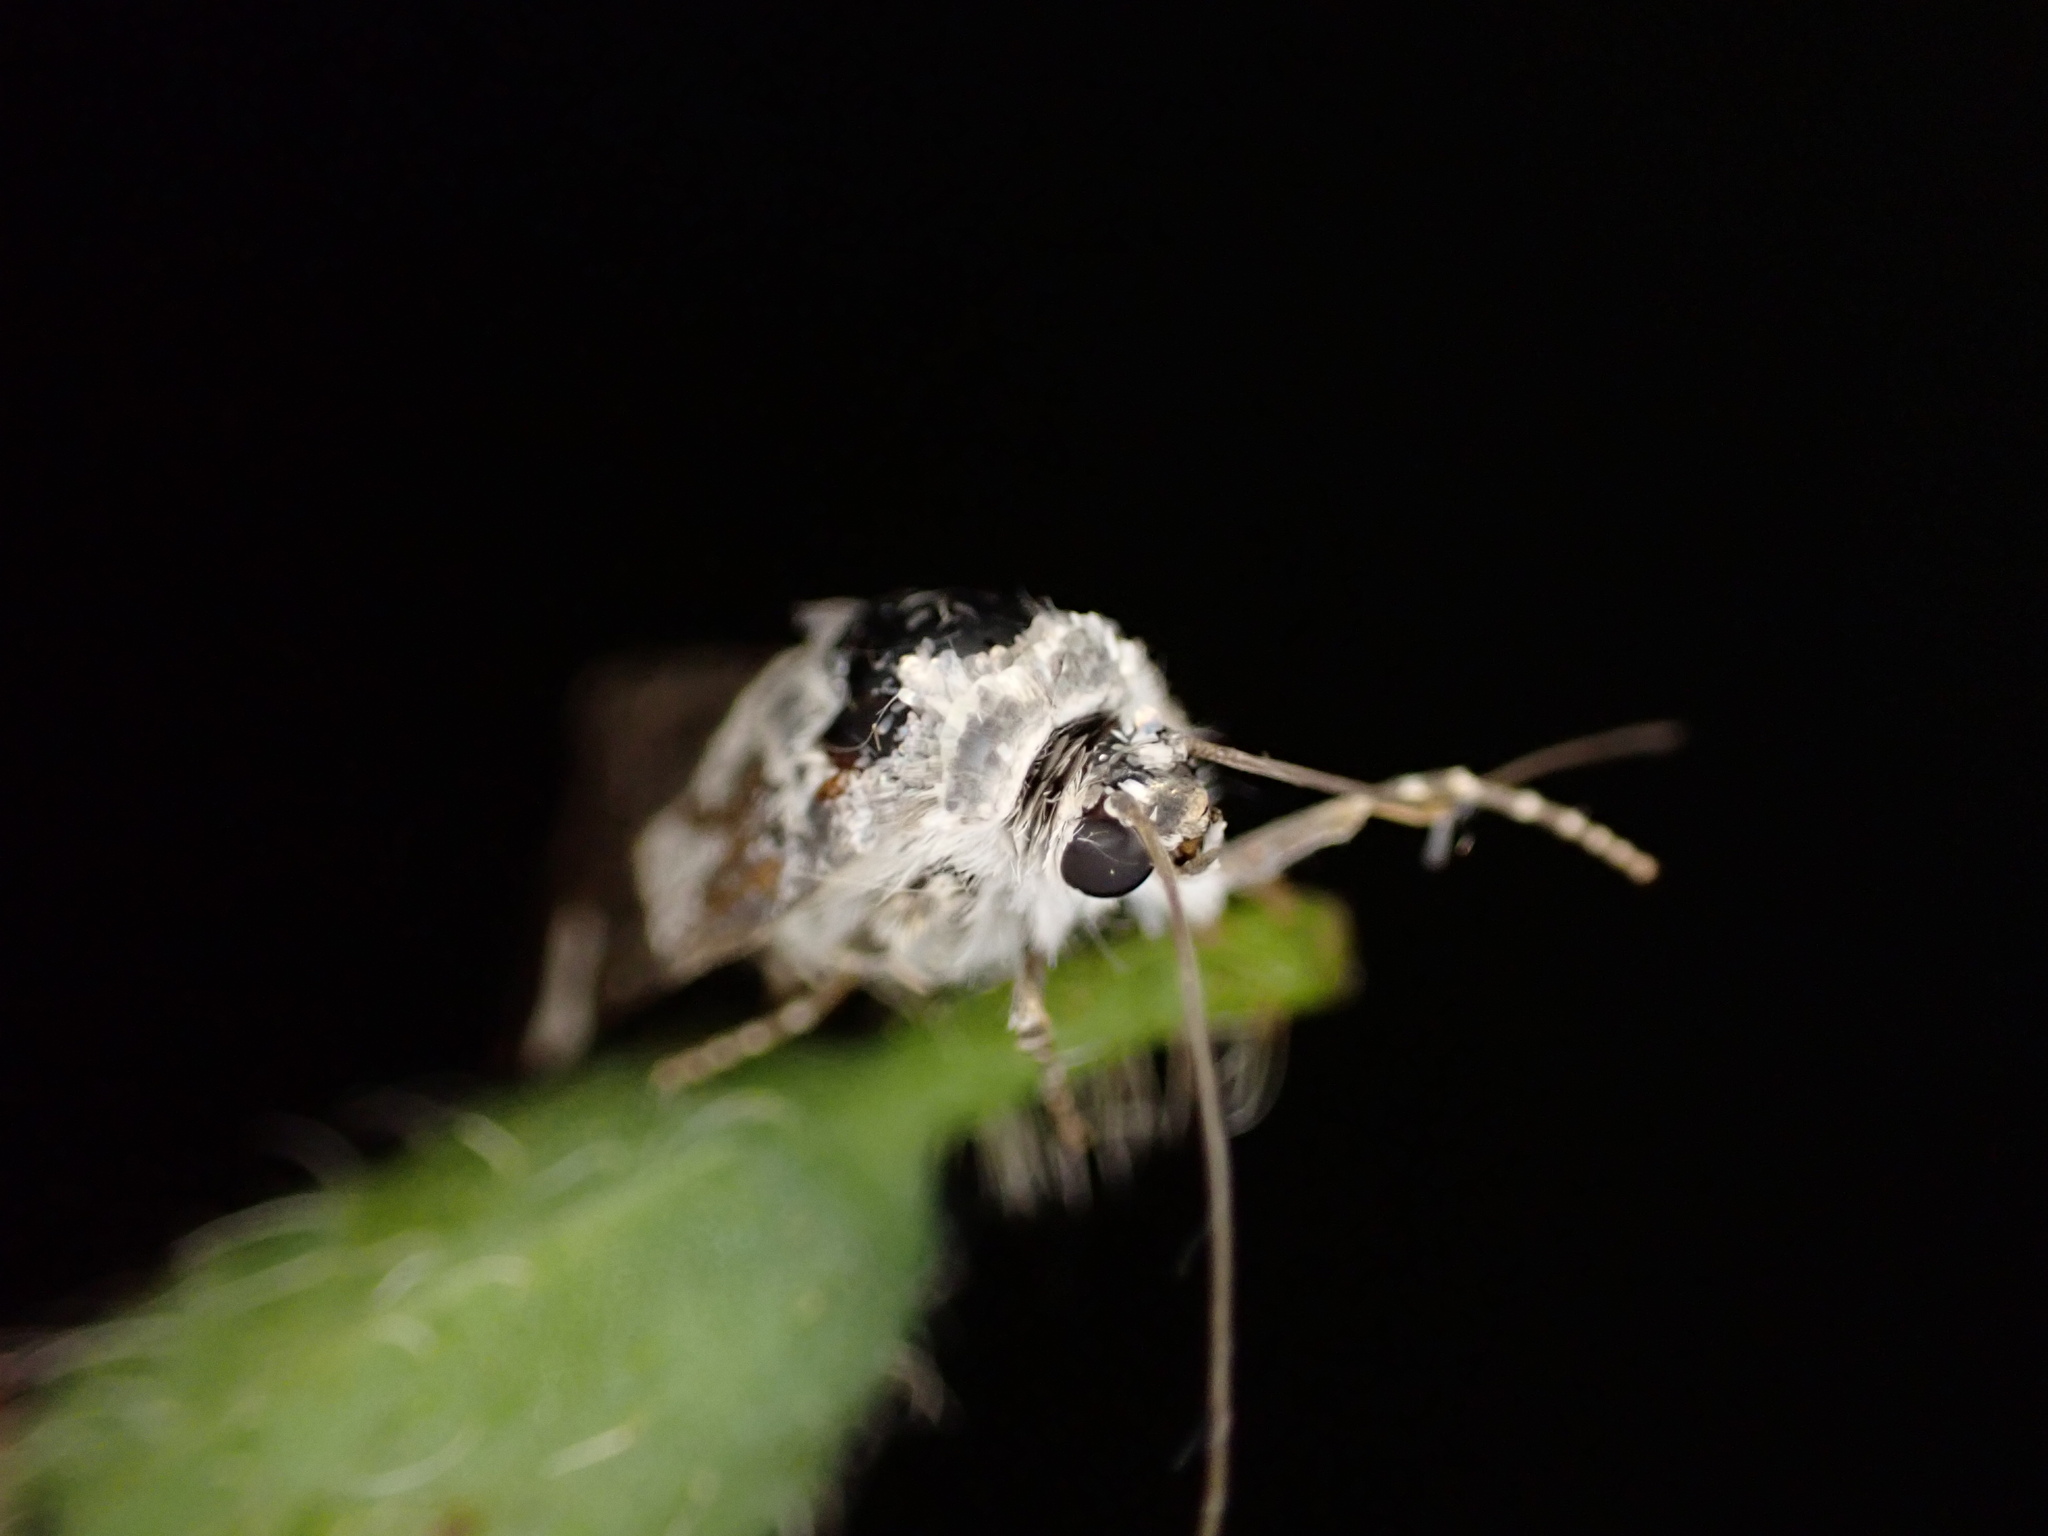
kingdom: Animalia
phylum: Arthropoda
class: Insecta
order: Lepidoptera
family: Noctuidae
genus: Acontia
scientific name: Acontia lucida
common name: Pale shoulder
